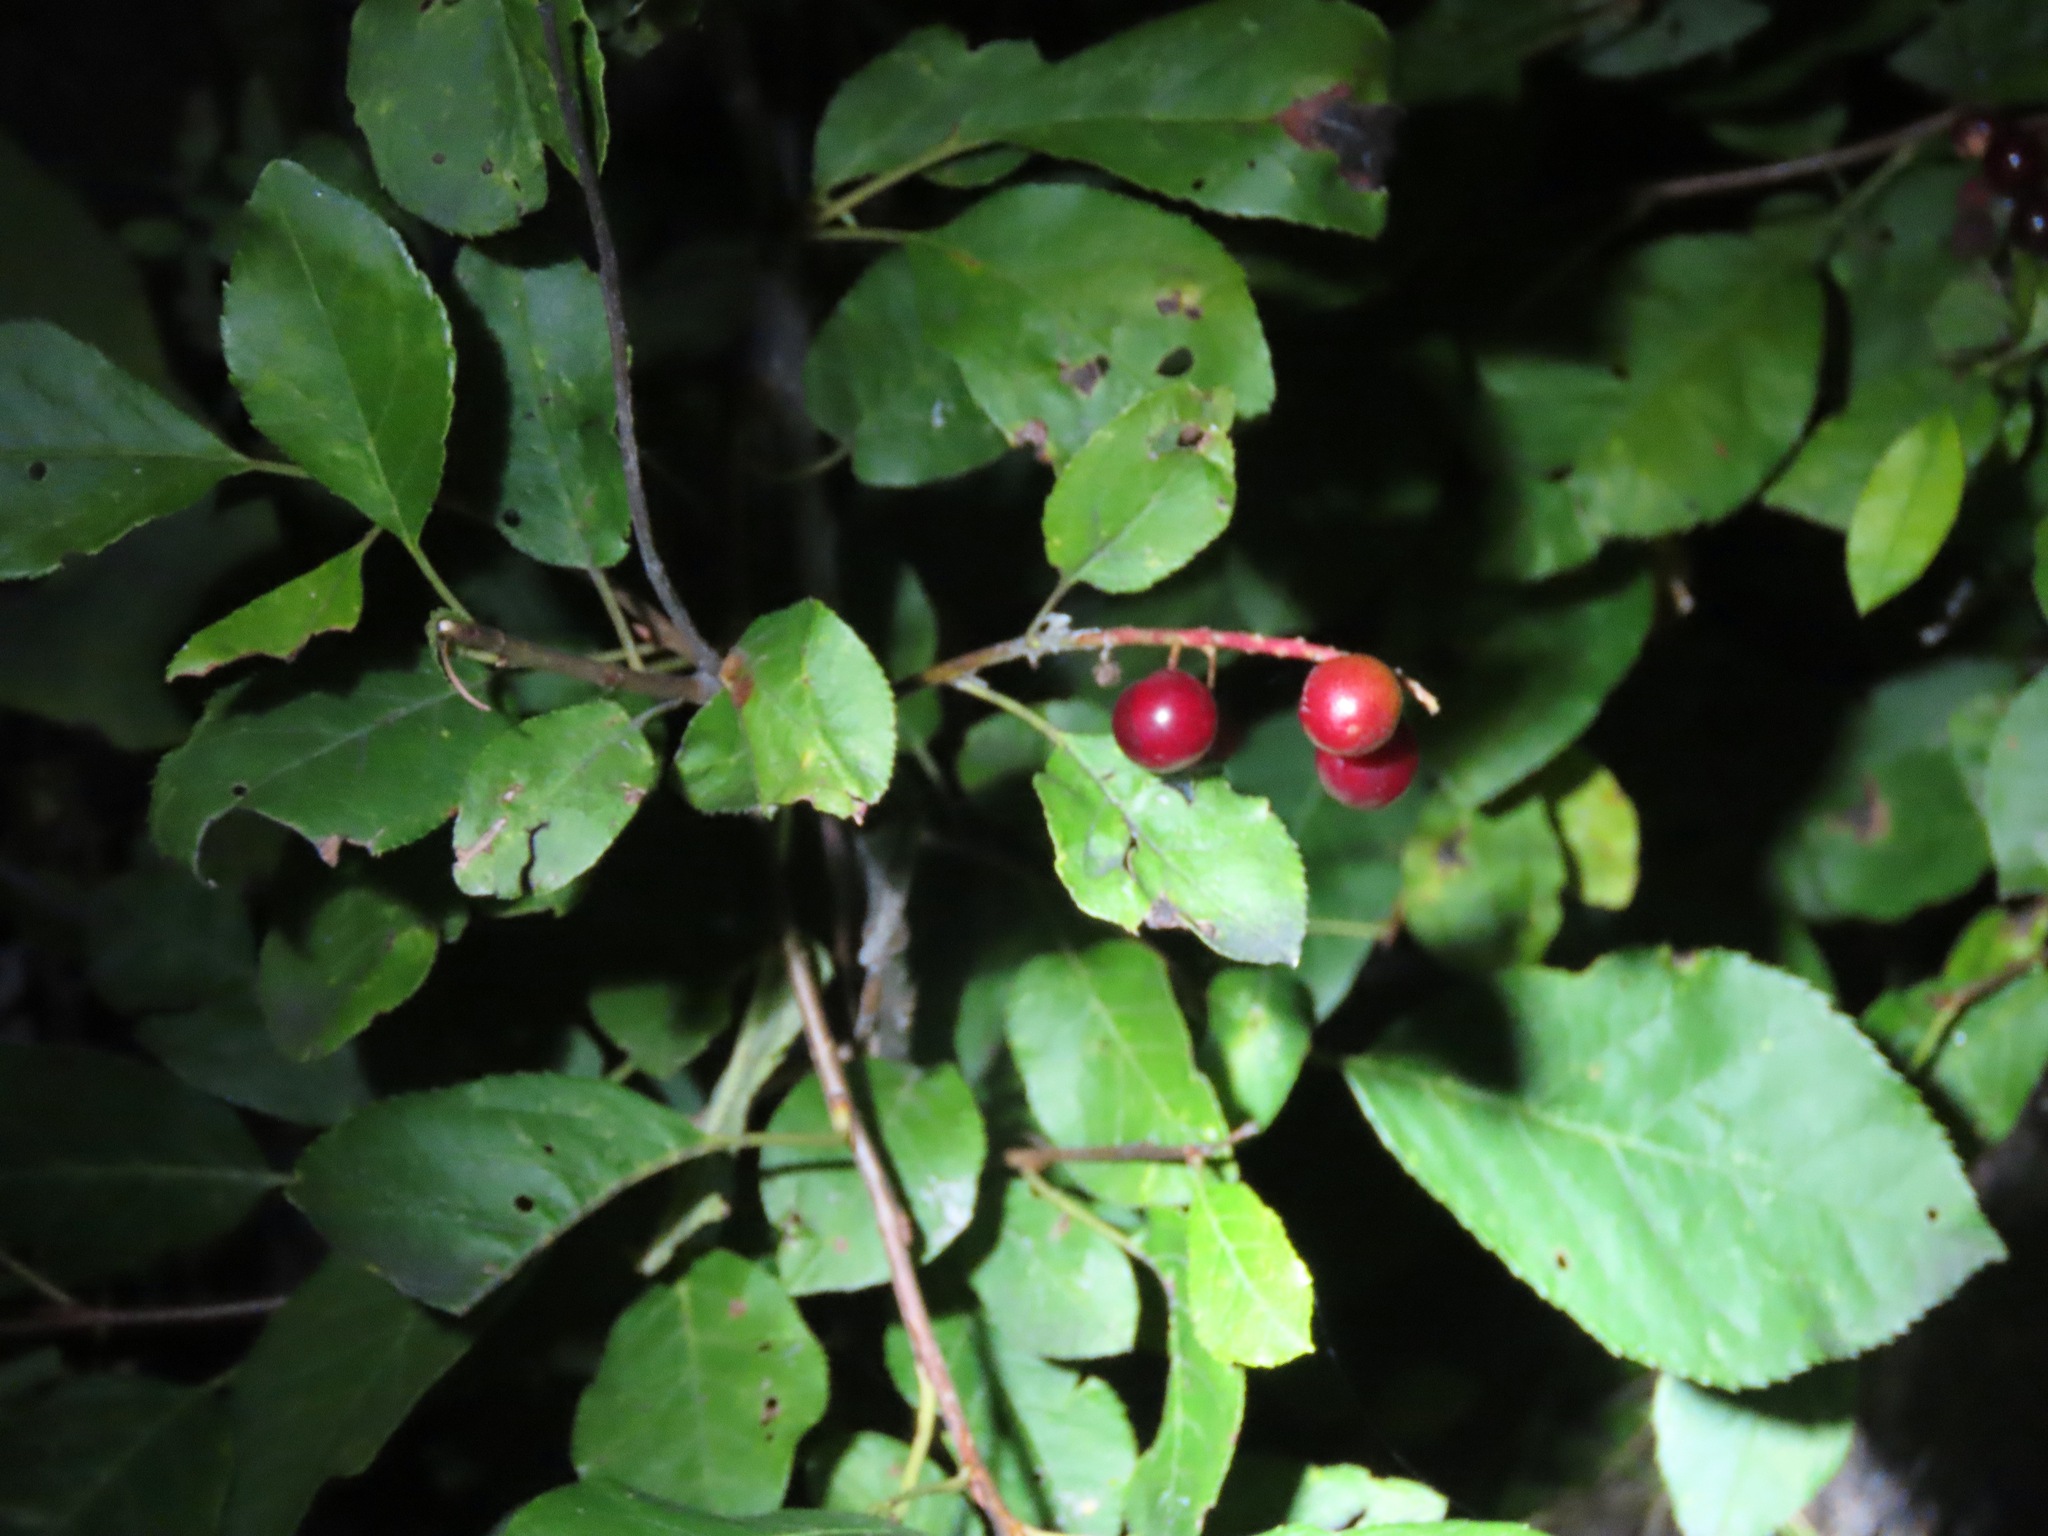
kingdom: Plantae
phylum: Tracheophyta
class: Magnoliopsida
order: Rosales
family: Rosaceae
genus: Prunus
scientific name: Prunus virginiana
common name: Chokecherry
